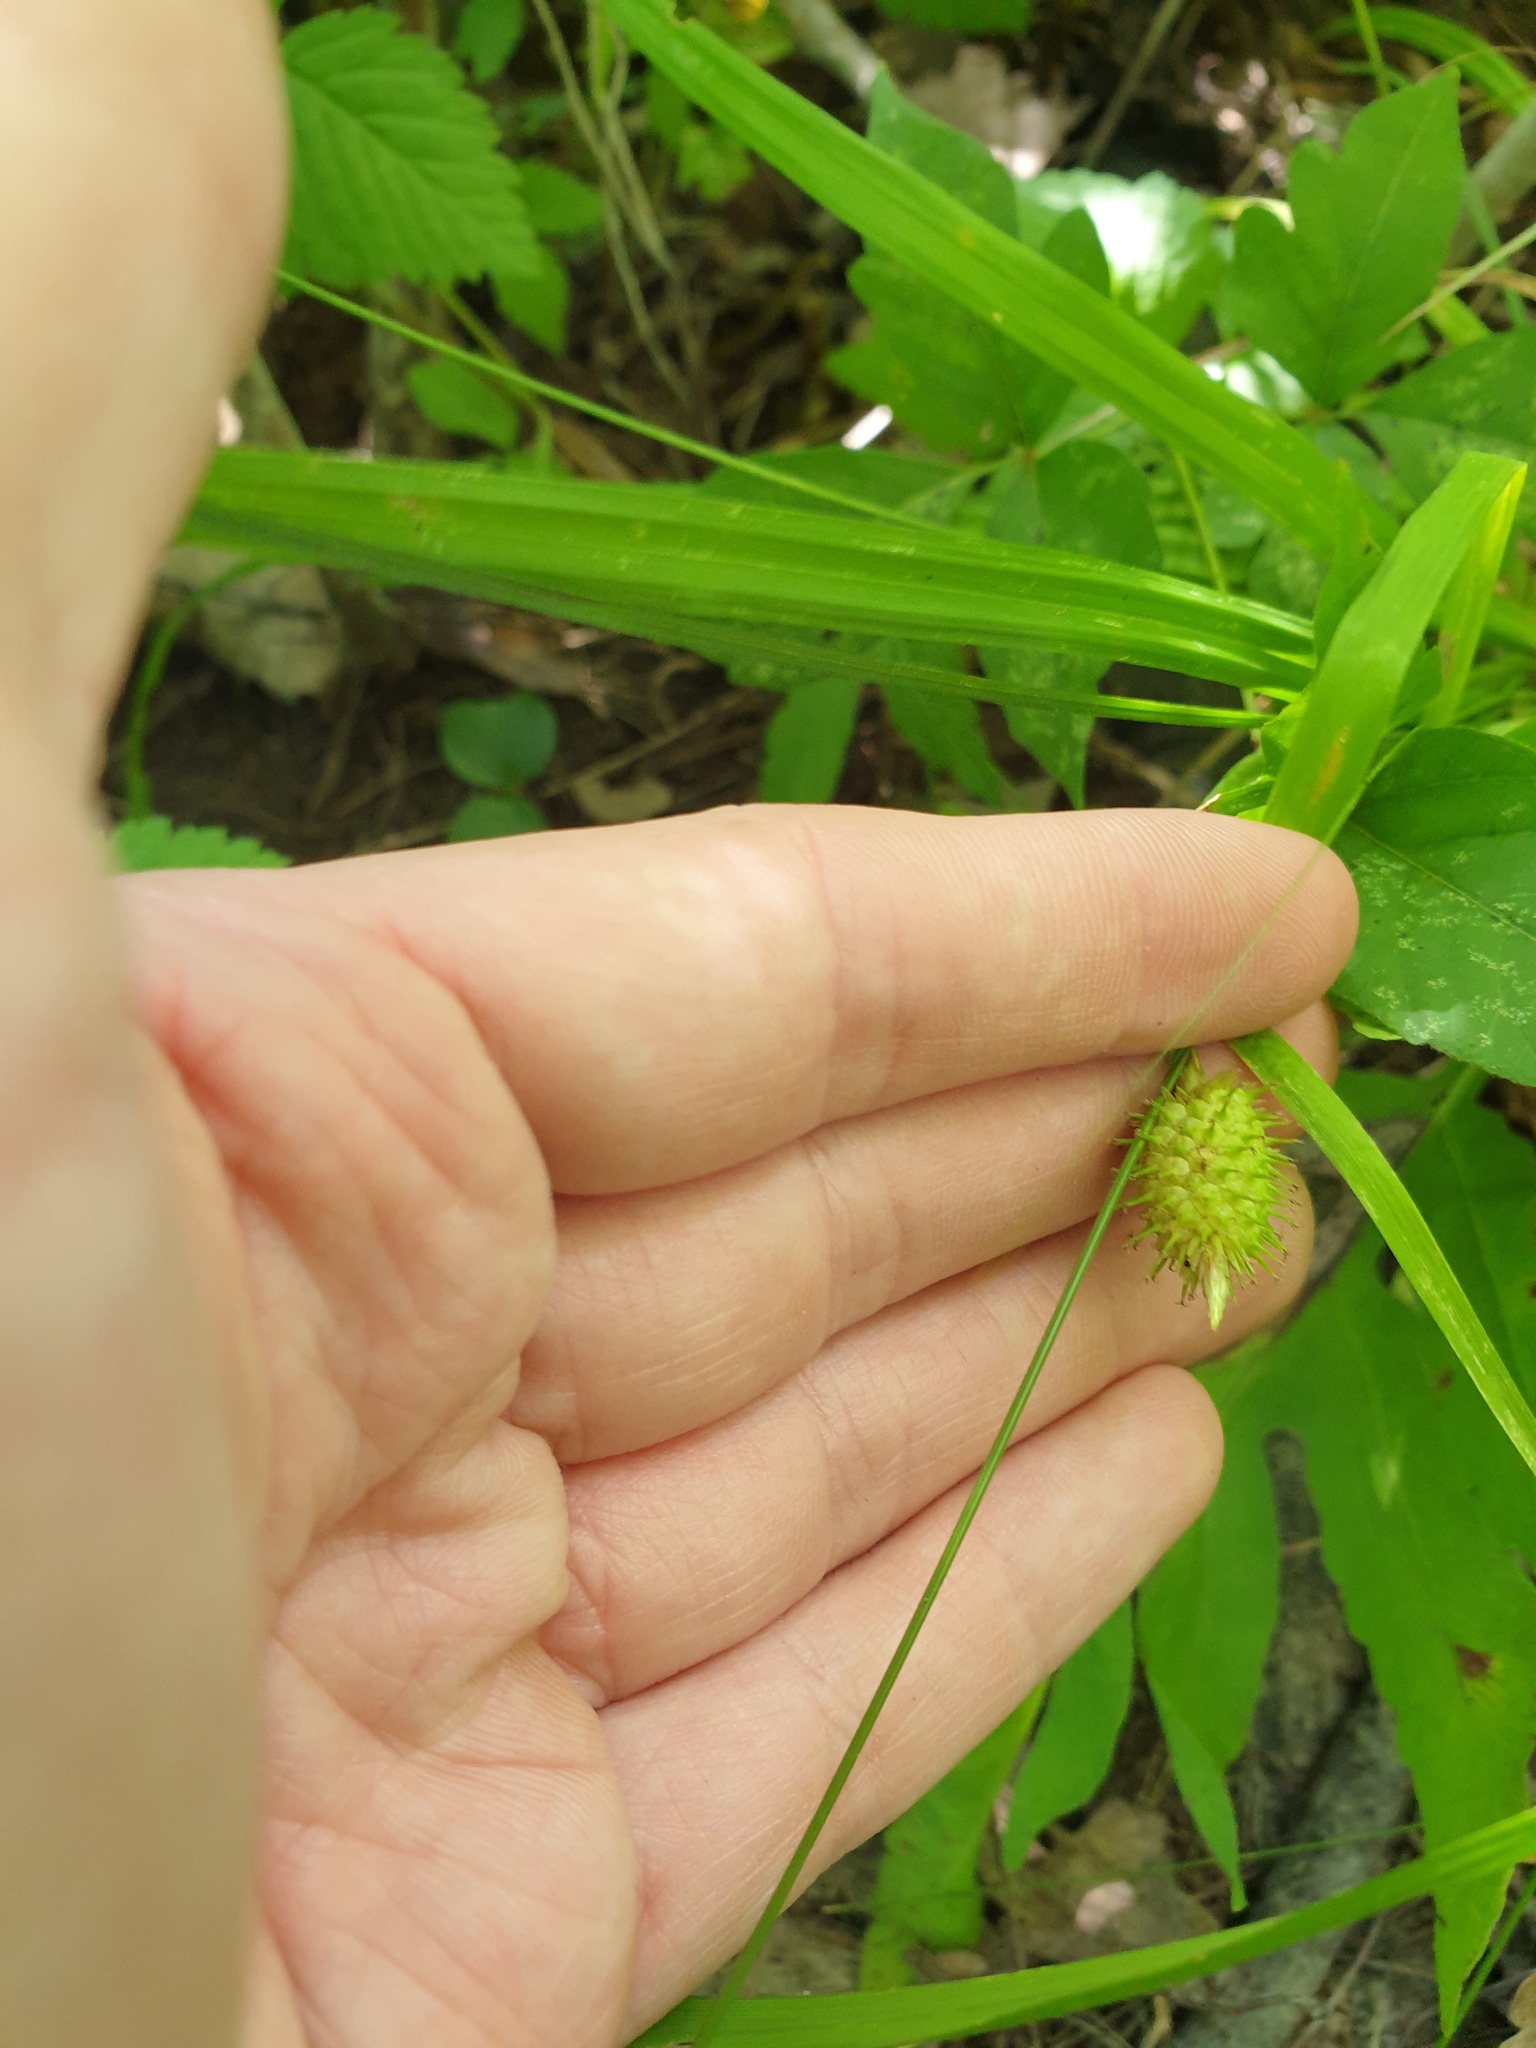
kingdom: Plantae
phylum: Tracheophyta
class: Liliopsida
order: Poales
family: Cyperaceae
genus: Carex
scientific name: Carex typhina
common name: Cattail sedge
